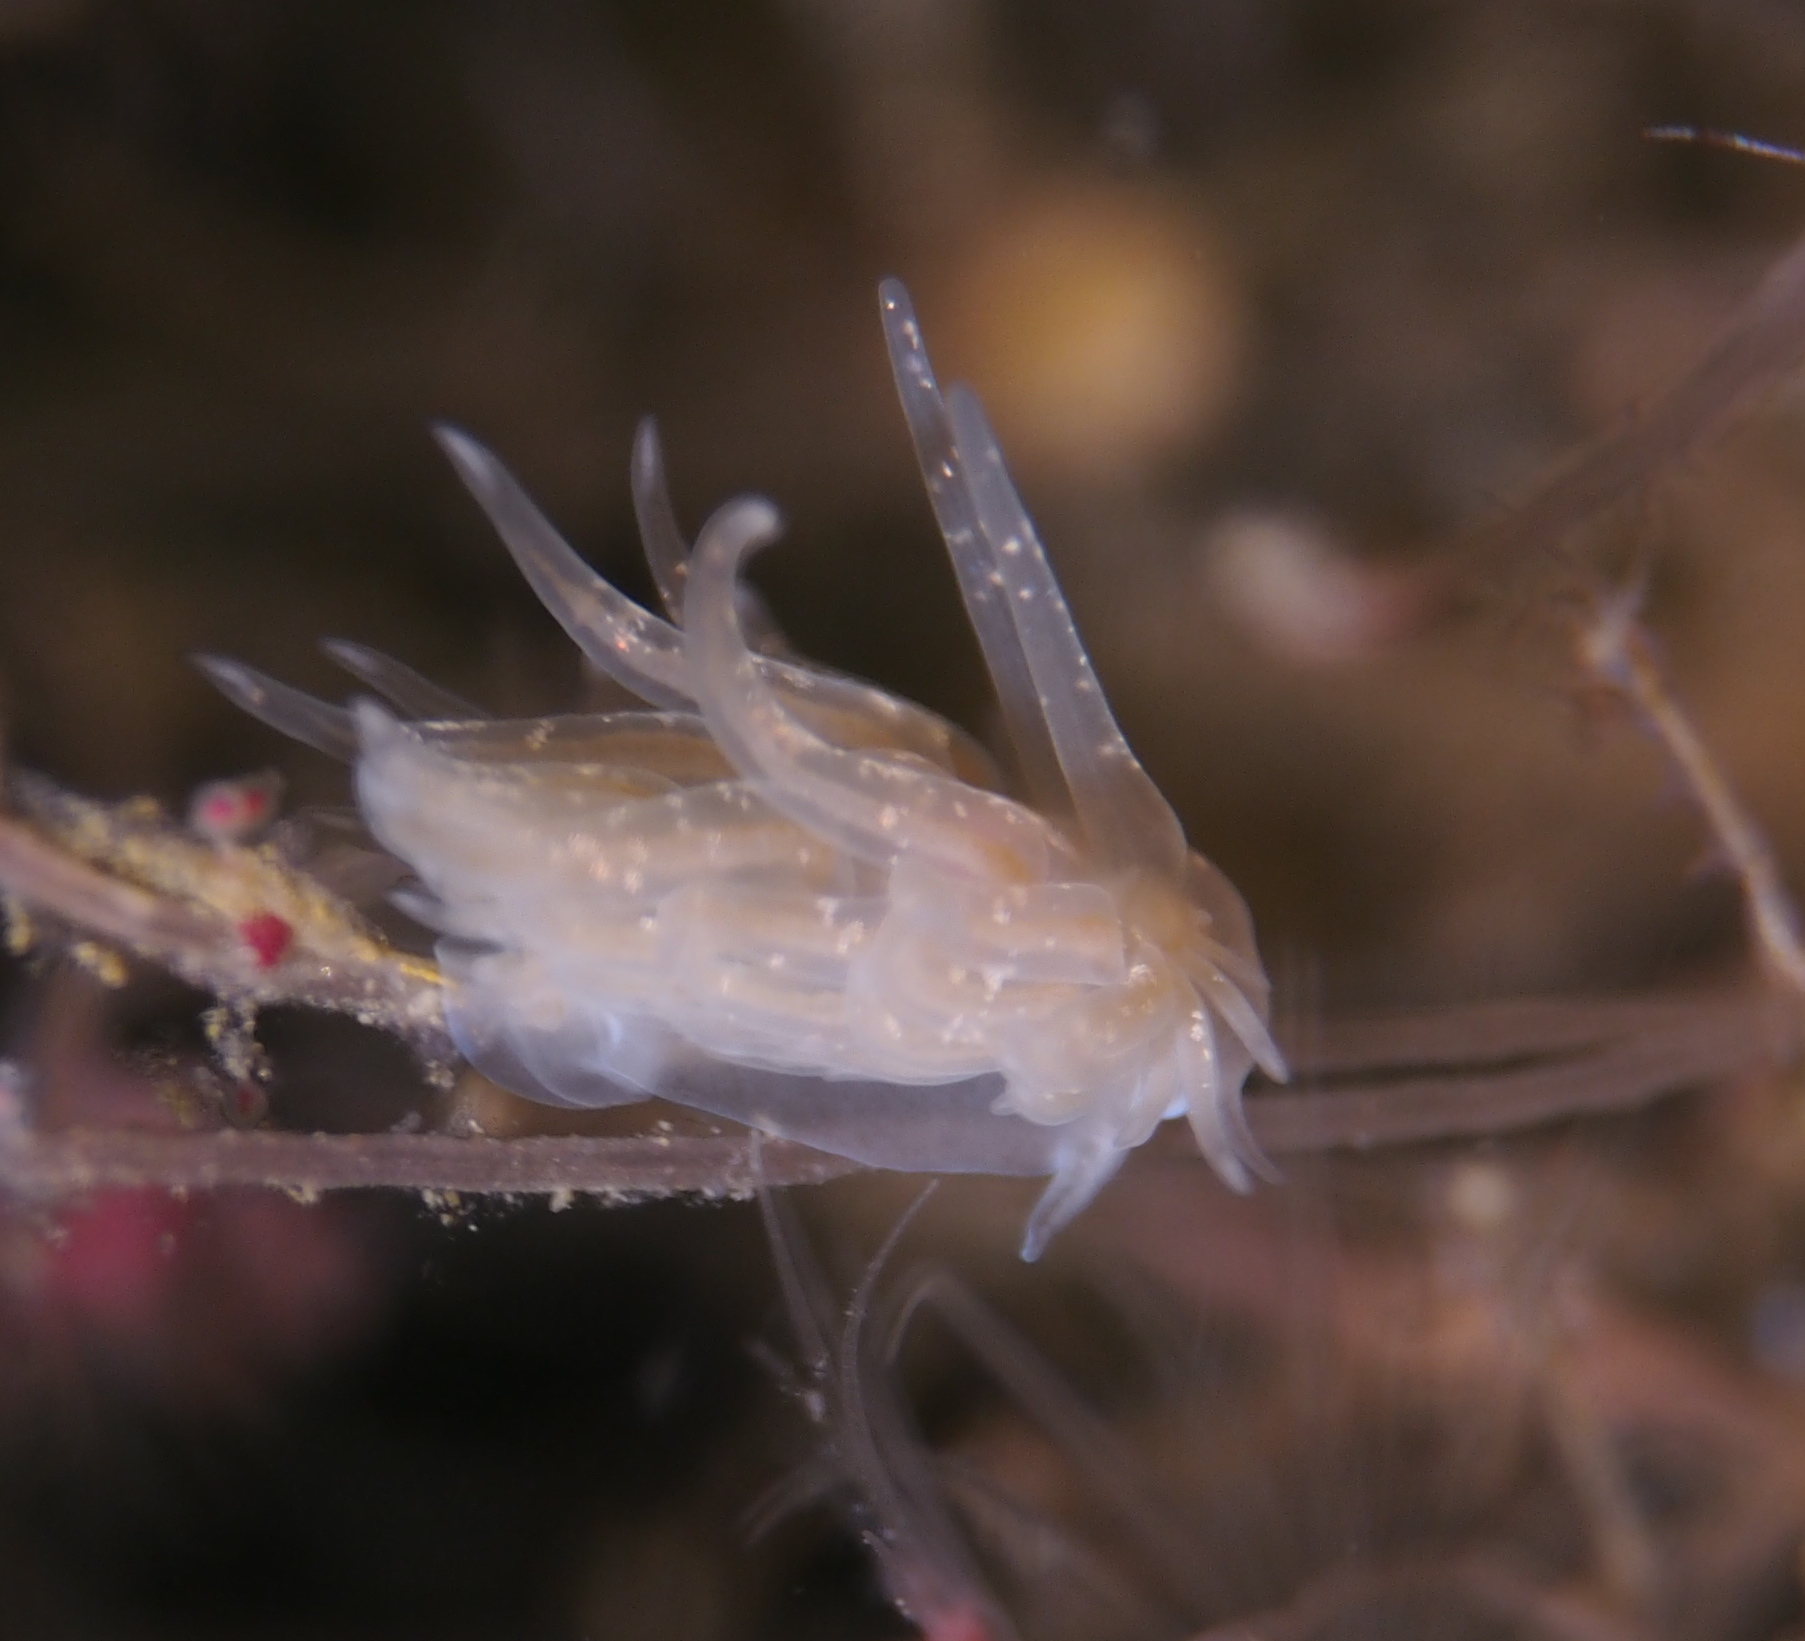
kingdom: Animalia
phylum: Mollusca
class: Gastropoda
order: Nudibranchia
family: Cumanotidae
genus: Cumanotus
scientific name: Cumanotus beaumonti
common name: Polyp aeolis
